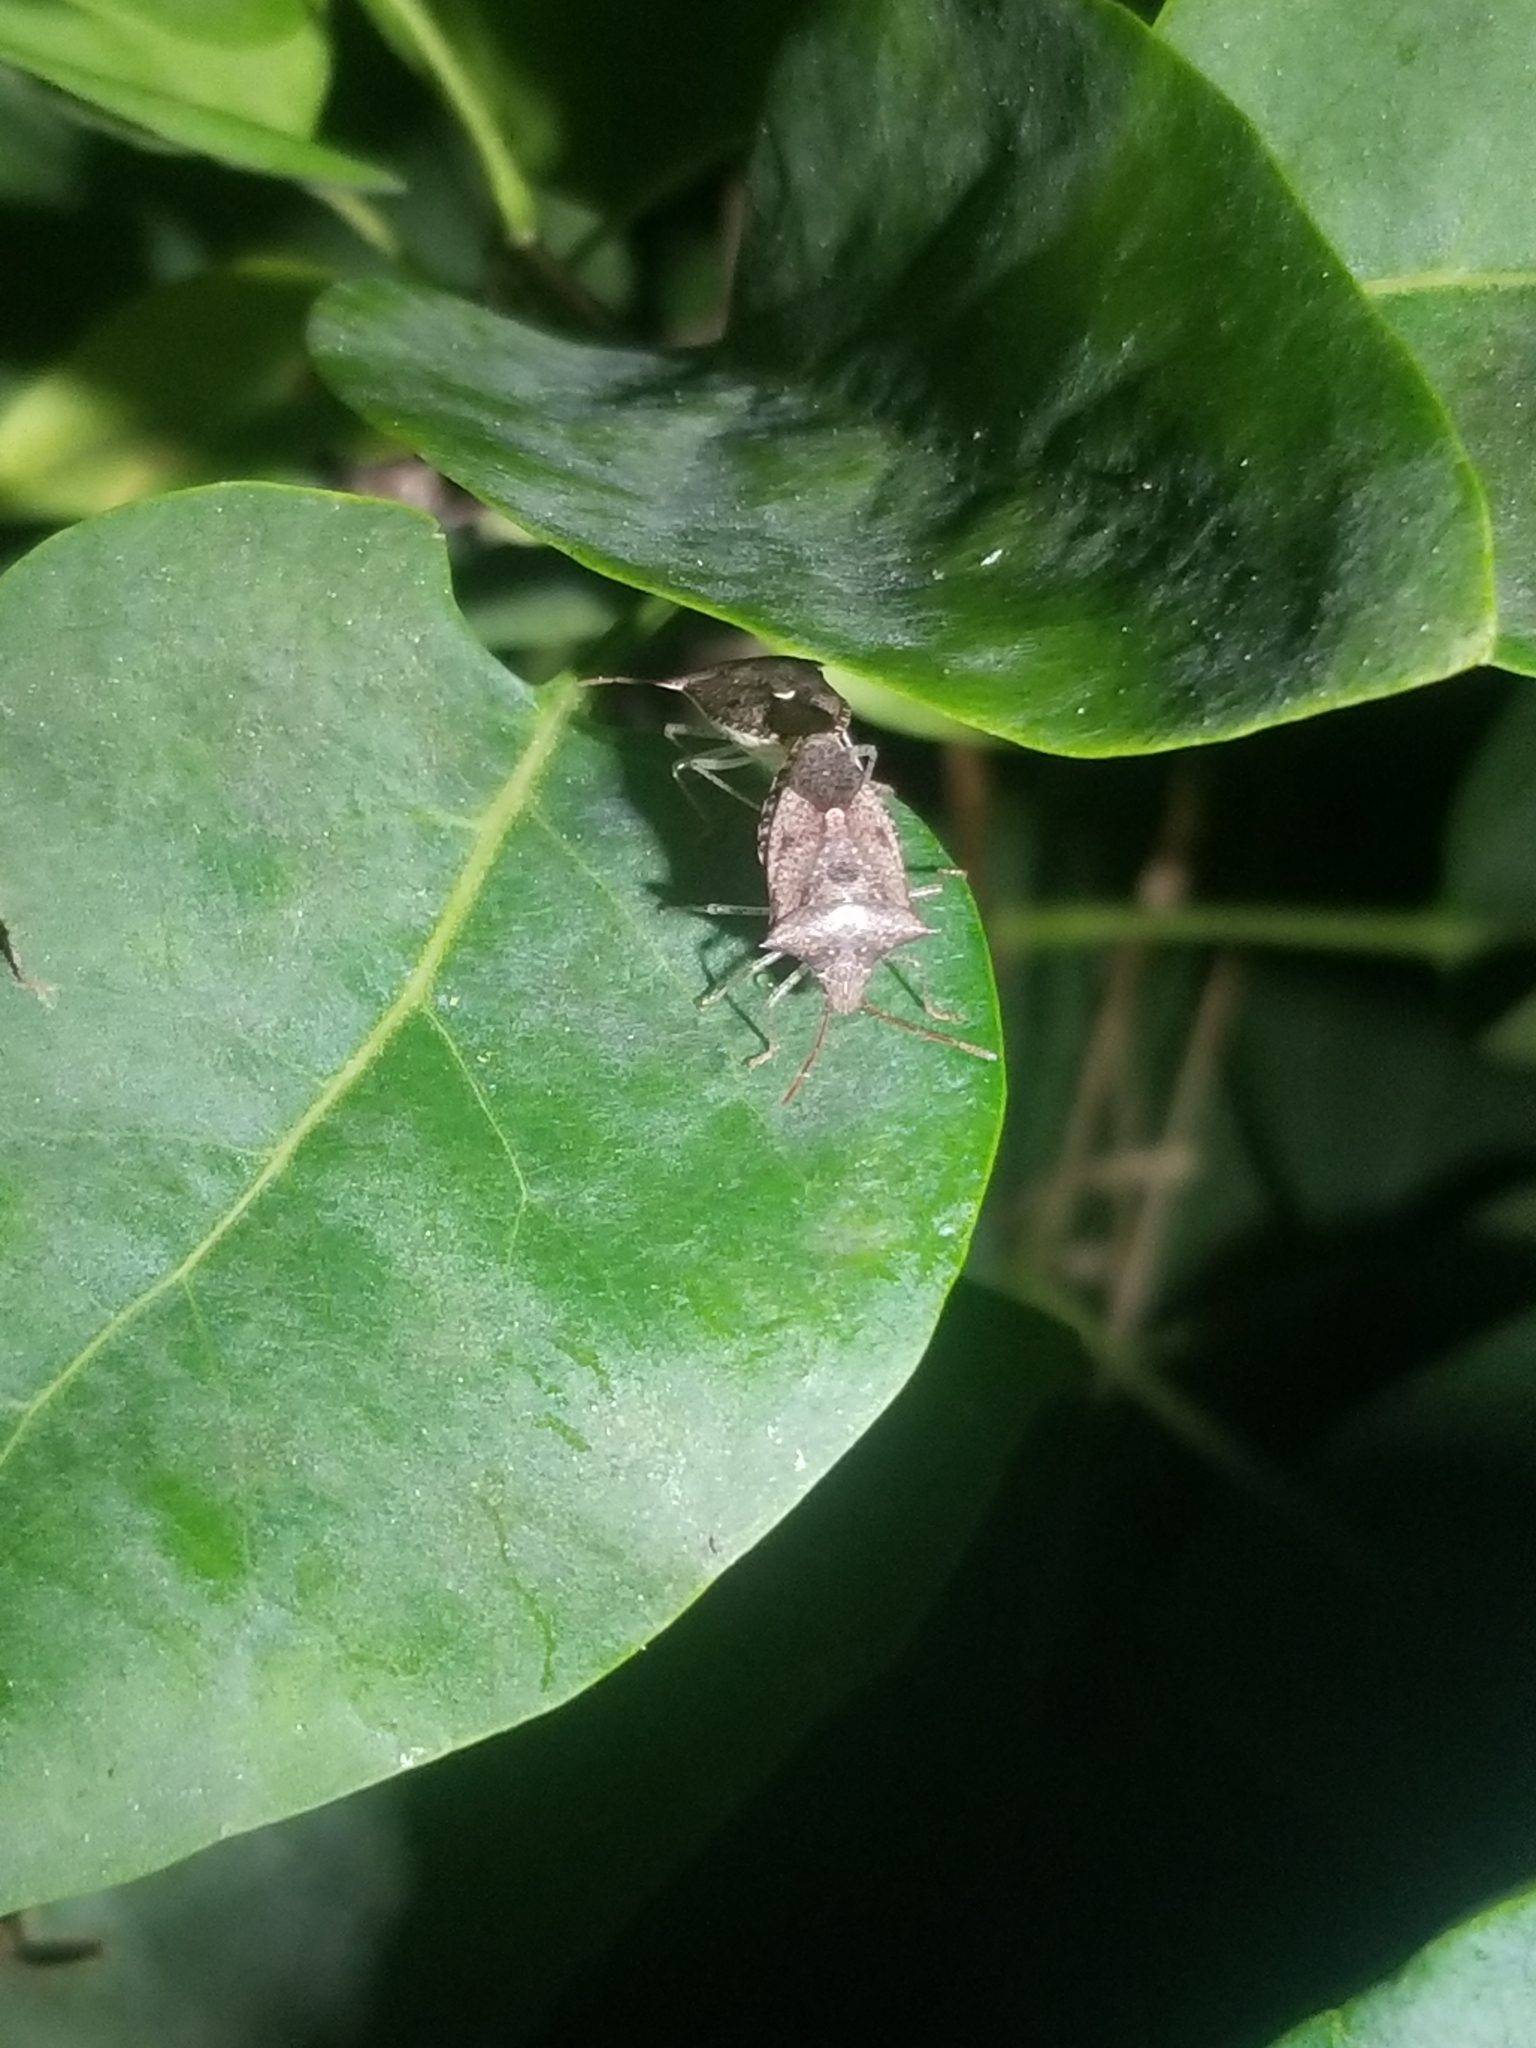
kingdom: Animalia
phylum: Arthropoda
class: Insecta
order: Hemiptera
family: Pentatomidae
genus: Euschistus
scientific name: Euschistus tristigmus
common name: Dusky stink bug
